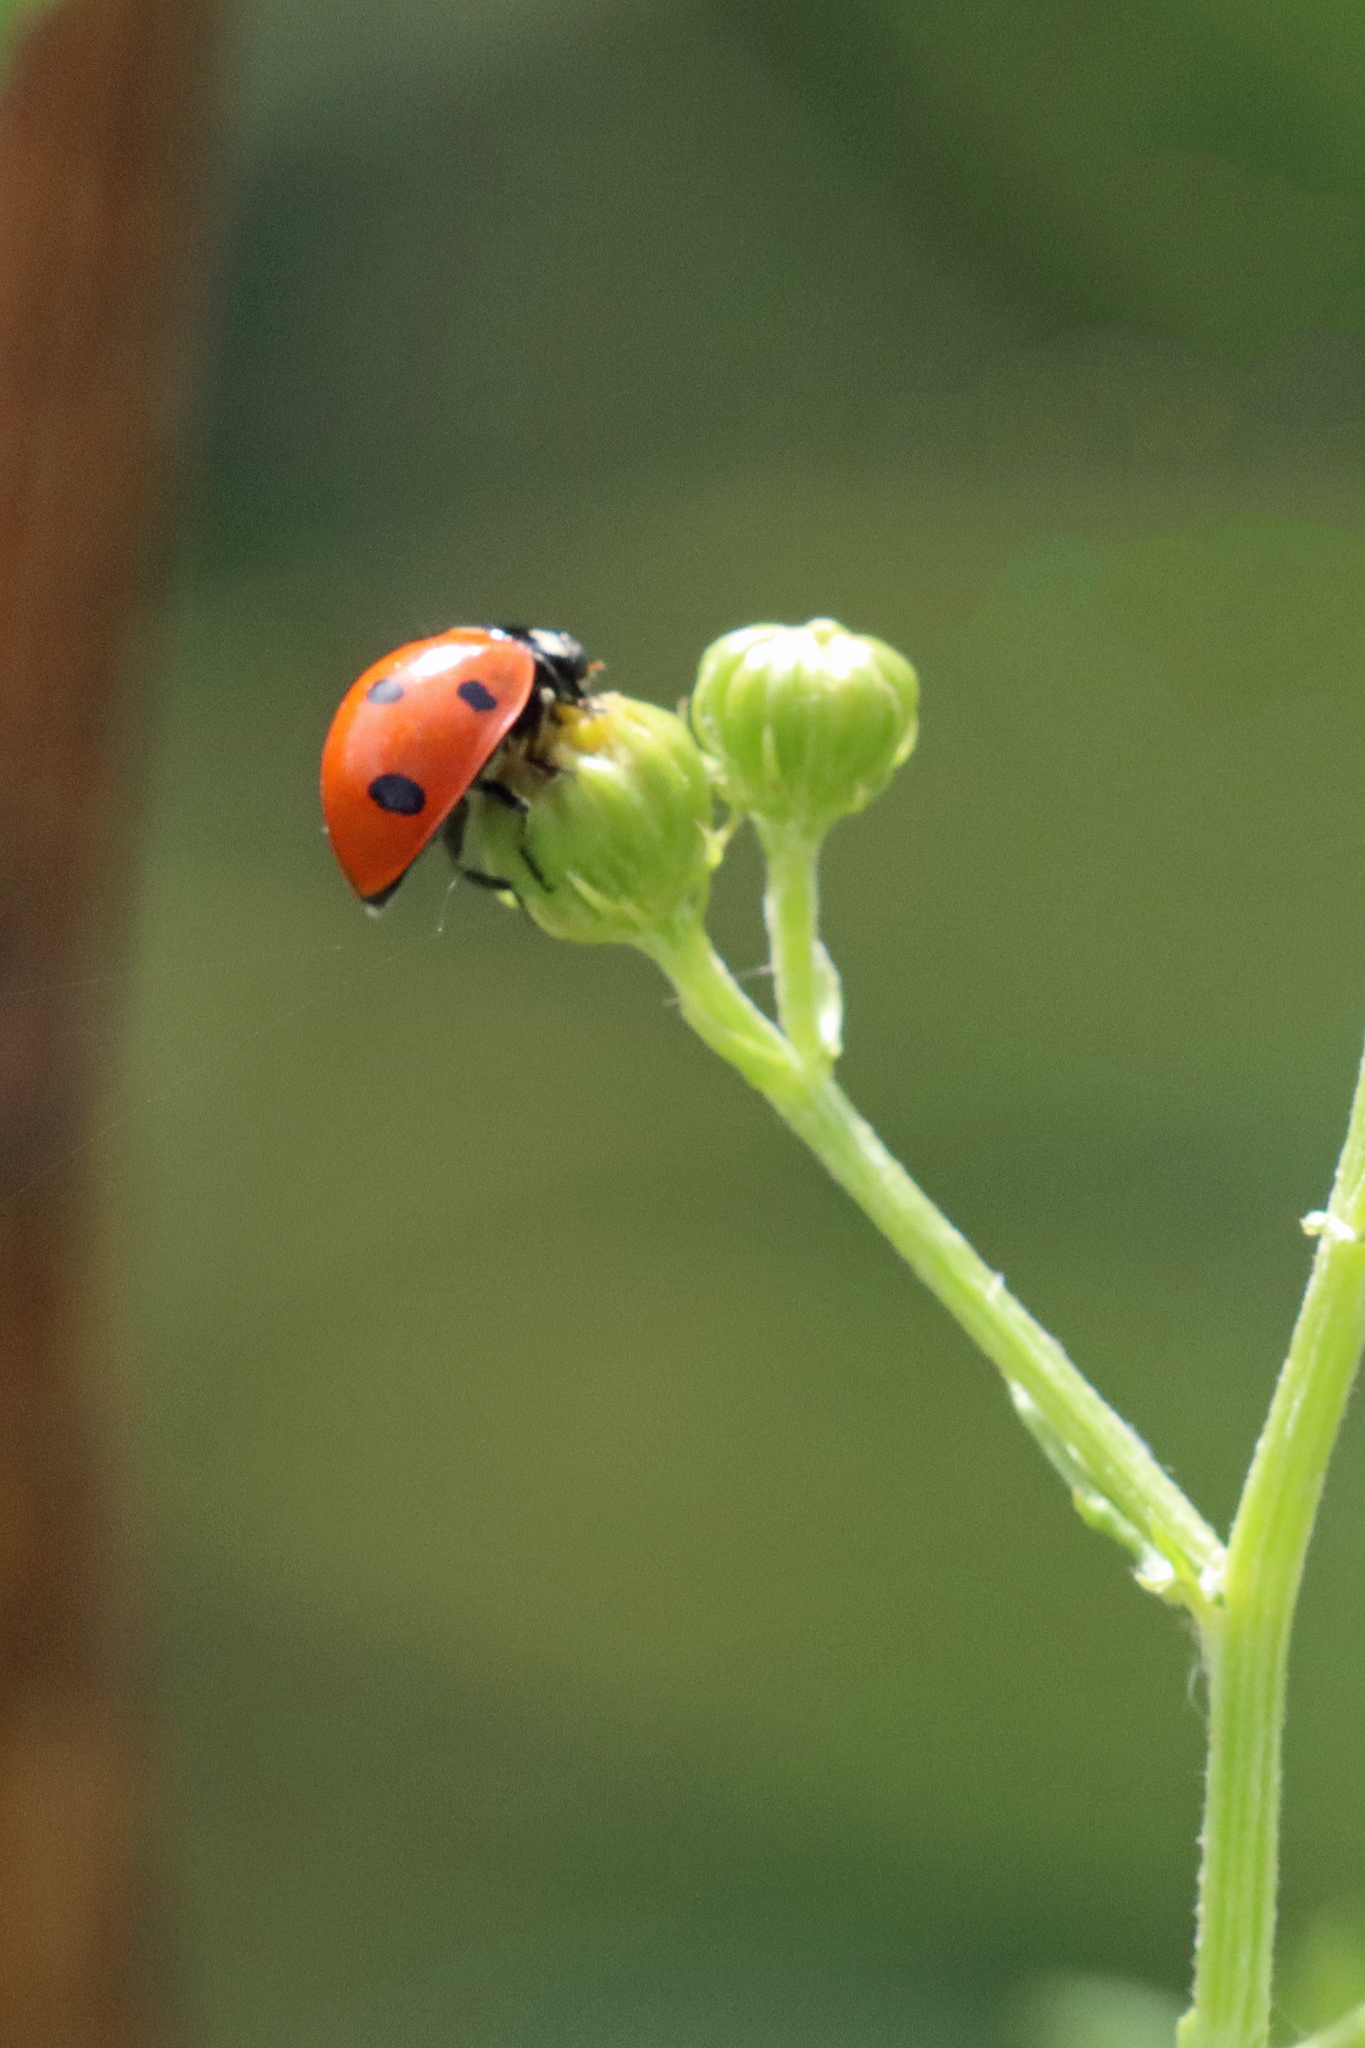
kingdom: Animalia
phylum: Arthropoda
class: Insecta
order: Coleoptera
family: Coccinellidae
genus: Coccinella
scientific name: Coccinella septempunctata
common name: Sevenspotted lady beetle
